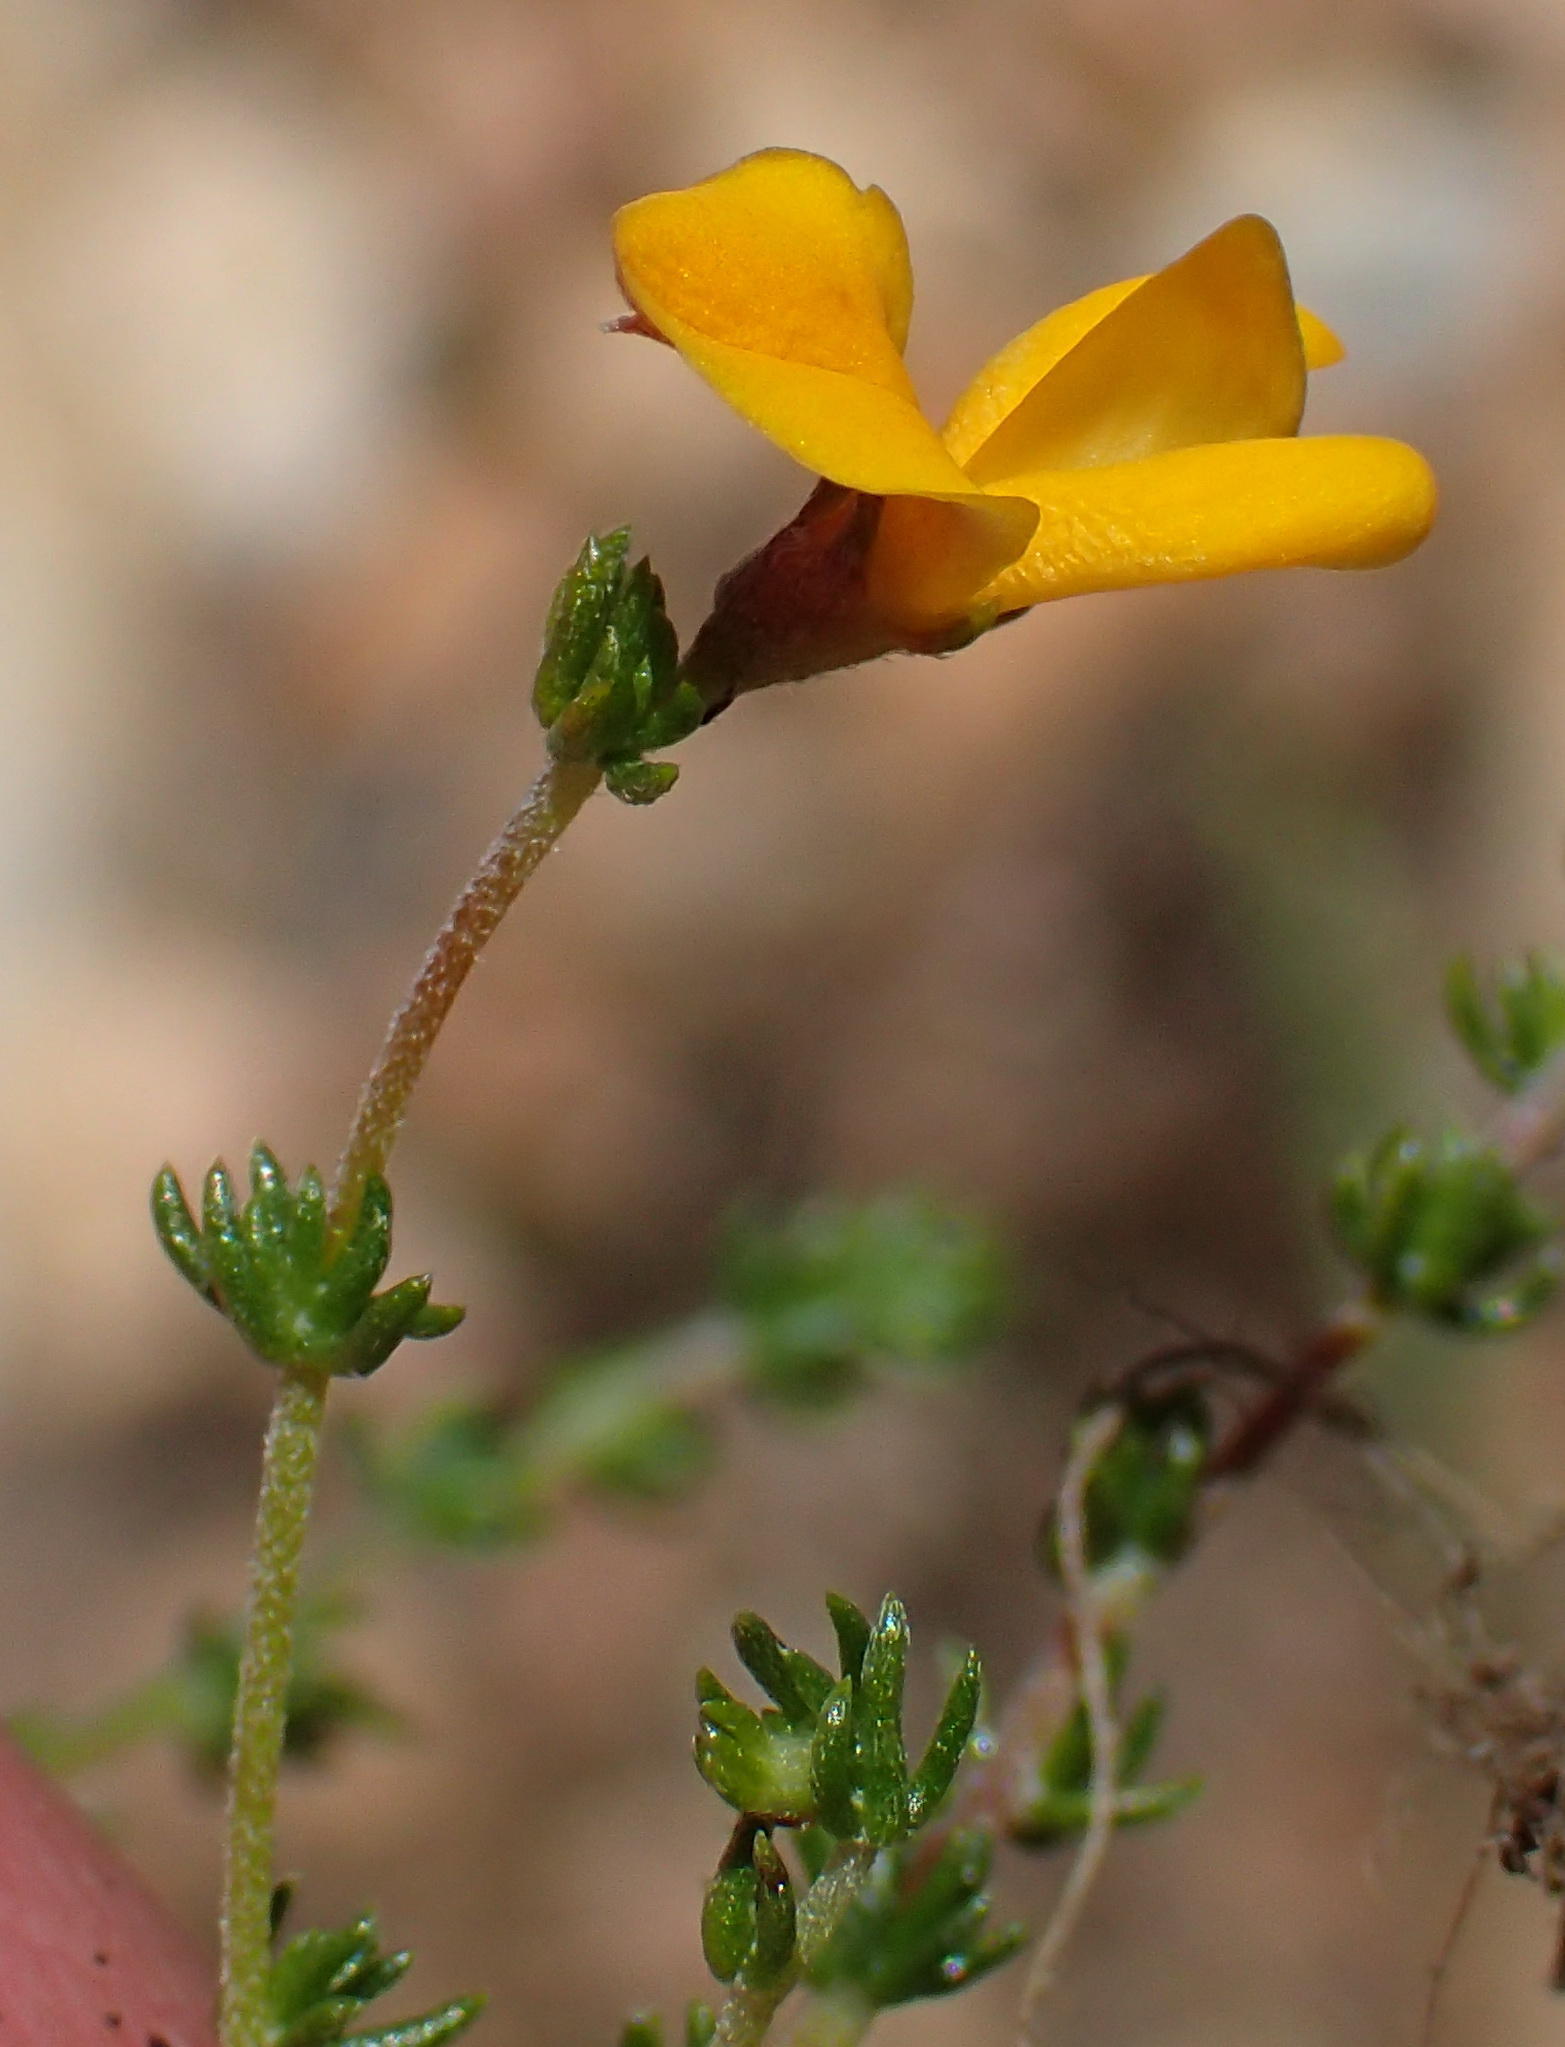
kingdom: Plantae
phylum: Tracheophyta
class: Magnoliopsida
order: Fabales
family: Fabaceae
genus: Aspalathus
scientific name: Aspalathus rubens
